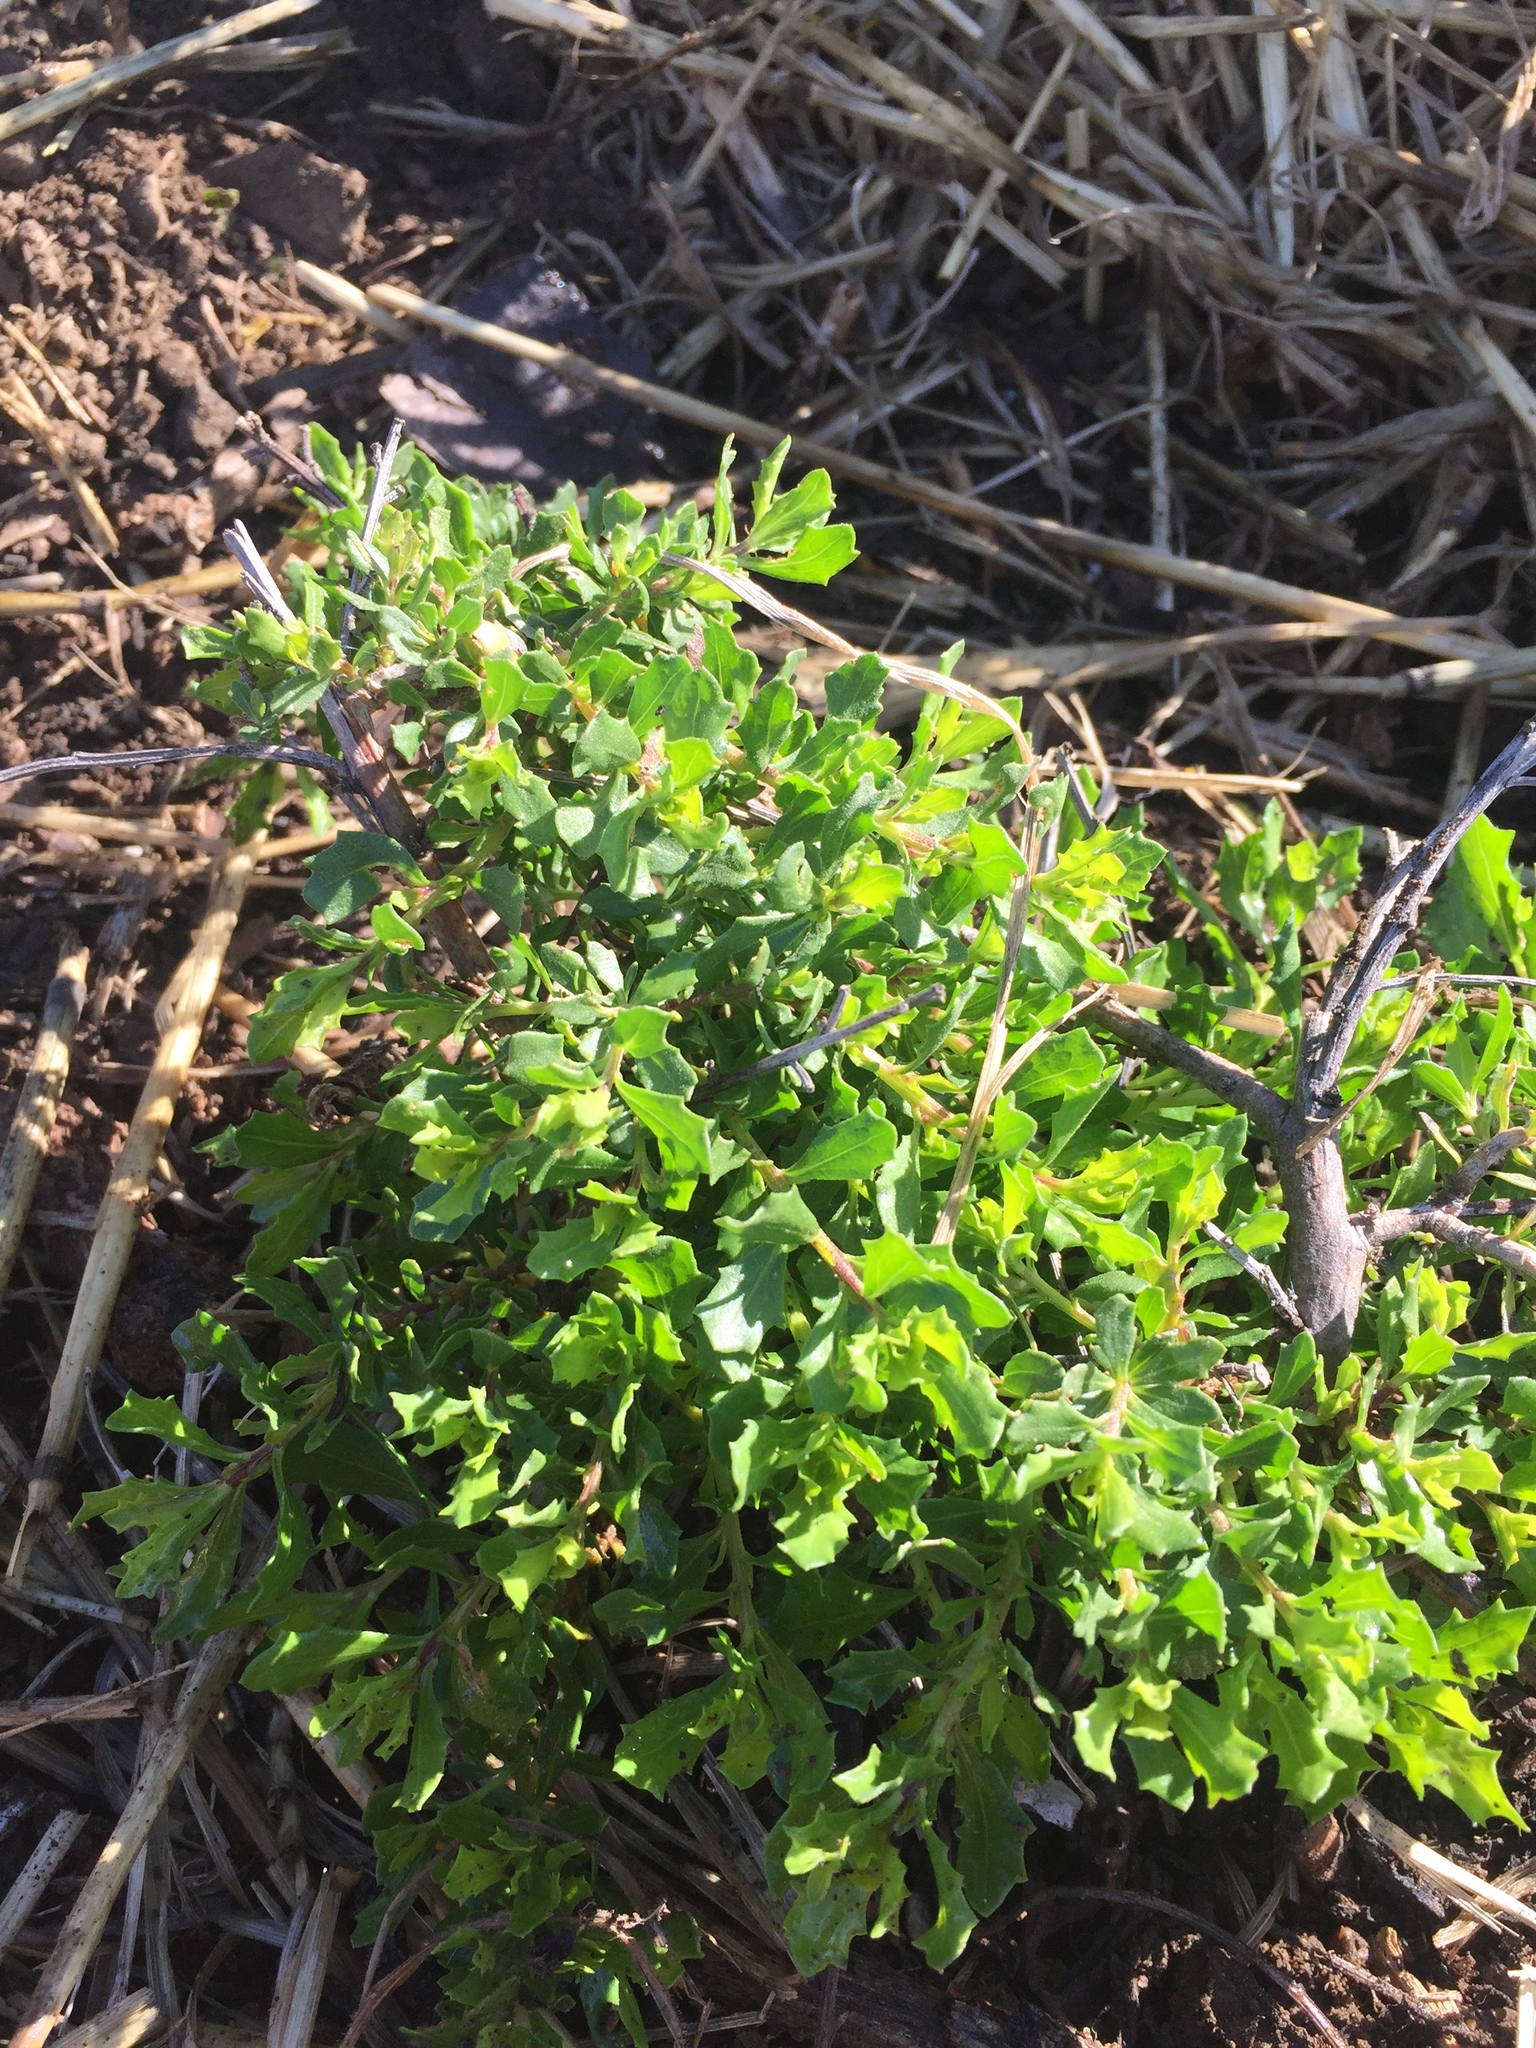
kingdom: Plantae
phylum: Tracheophyta
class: Magnoliopsida
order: Asterales
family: Asteraceae
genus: Baccharis
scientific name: Baccharis pilularis
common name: Coyotebrush
